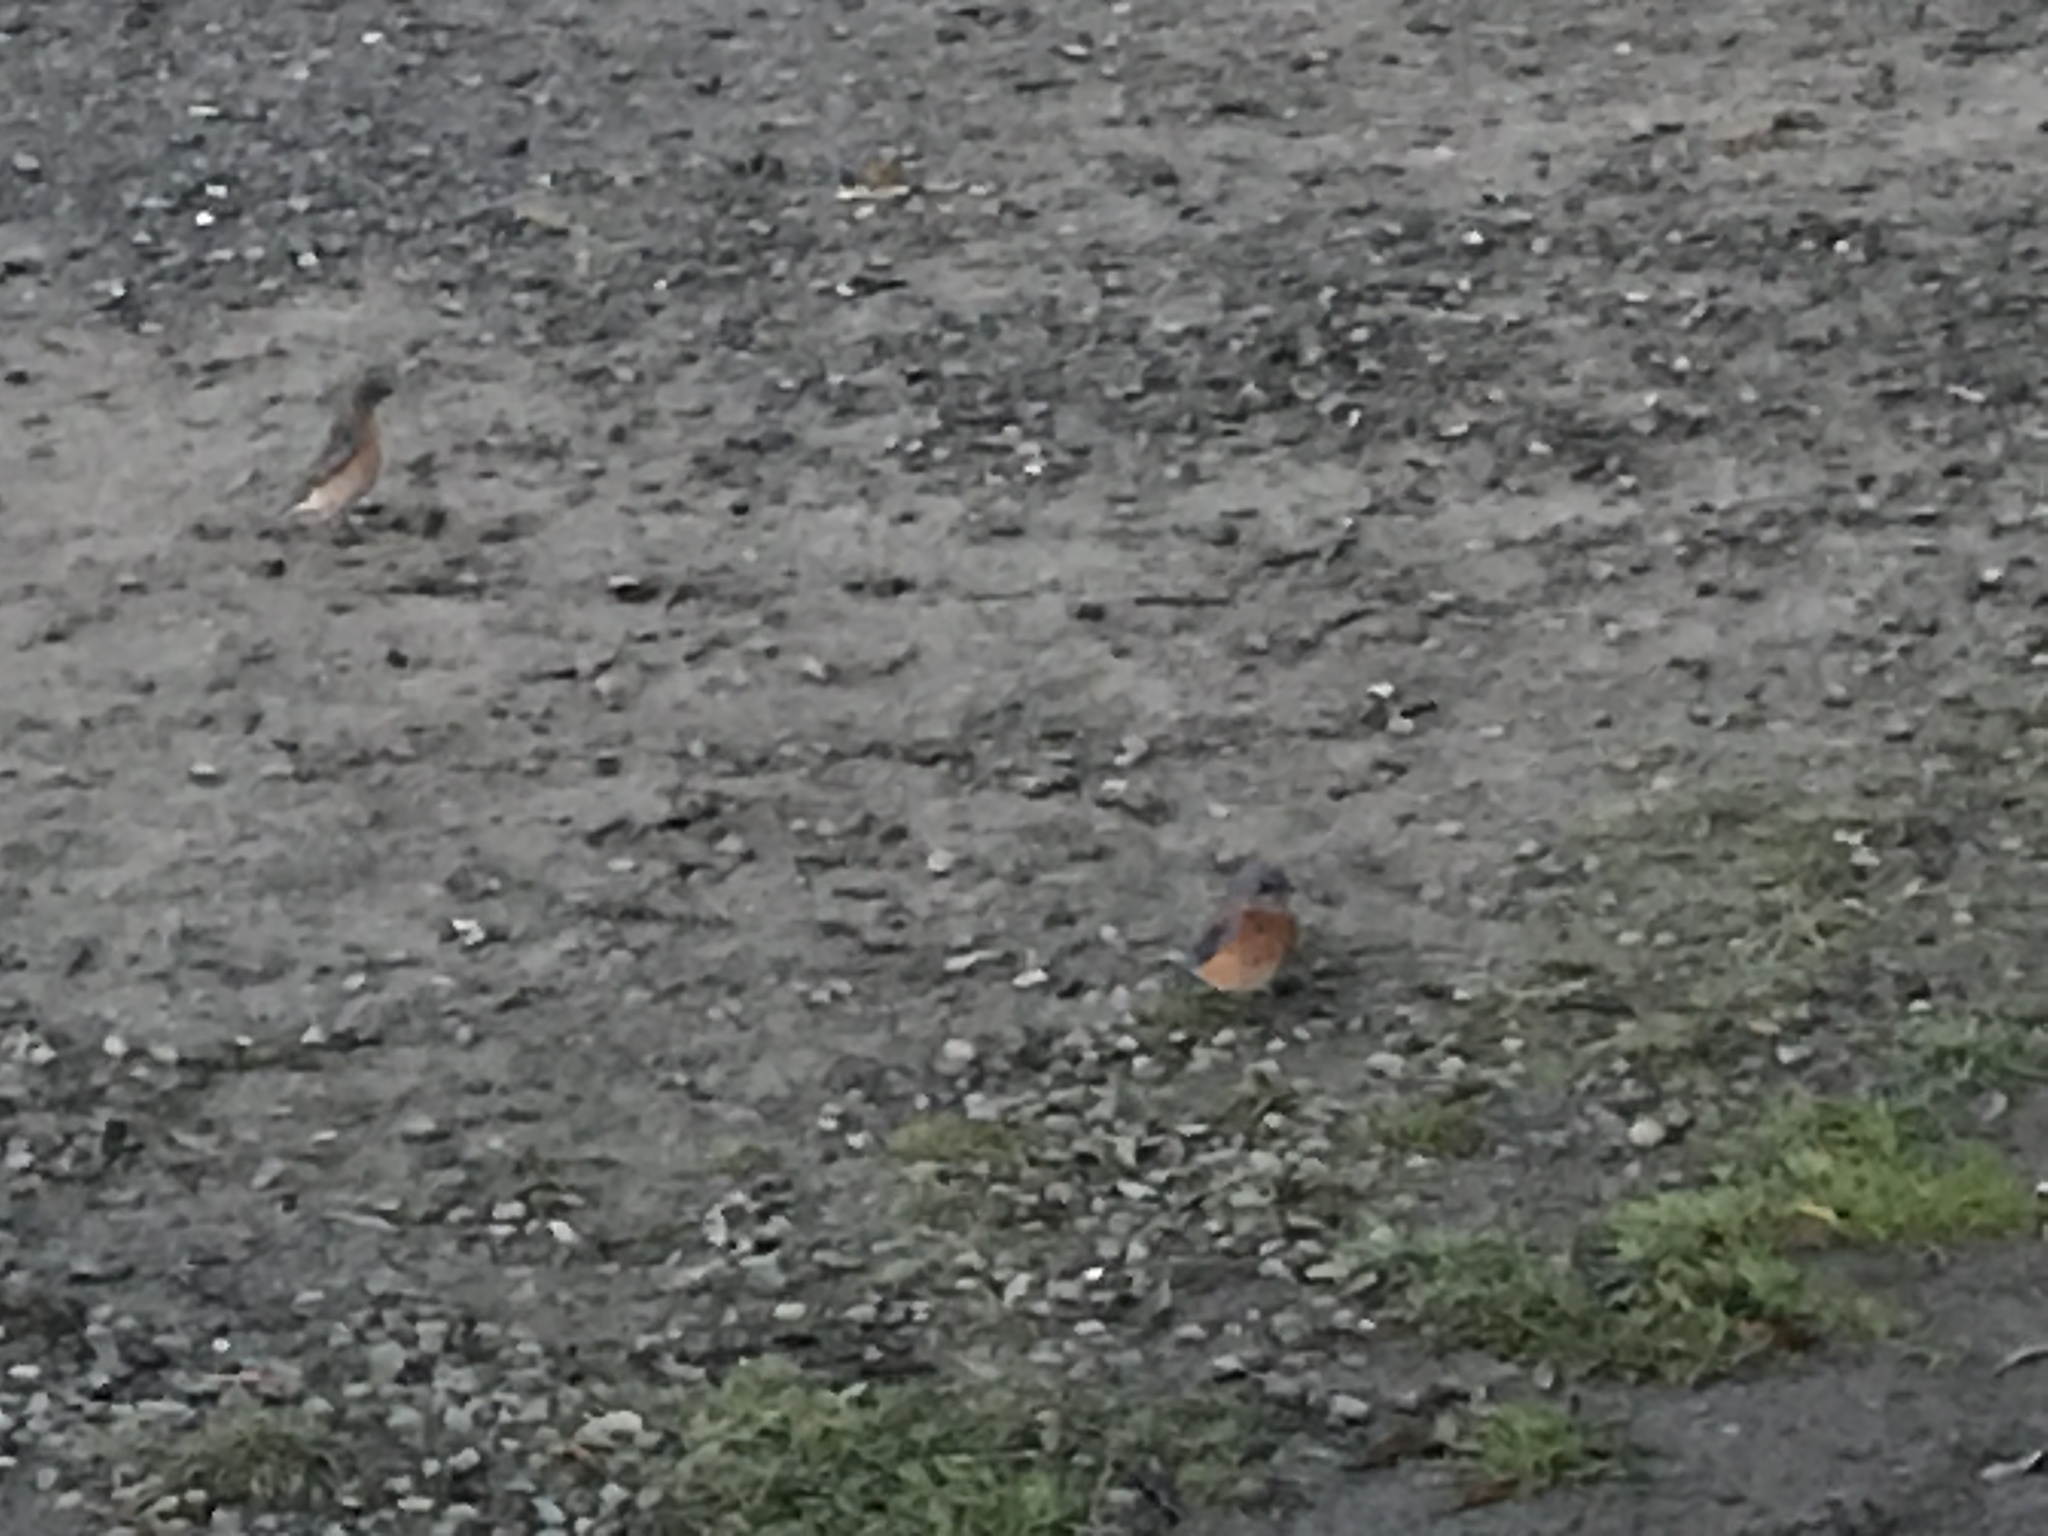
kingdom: Animalia
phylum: Chordata
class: Aves
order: Passeriformes
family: Turdidae
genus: Sialia
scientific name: Sialia mexicana
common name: Western bluebird
